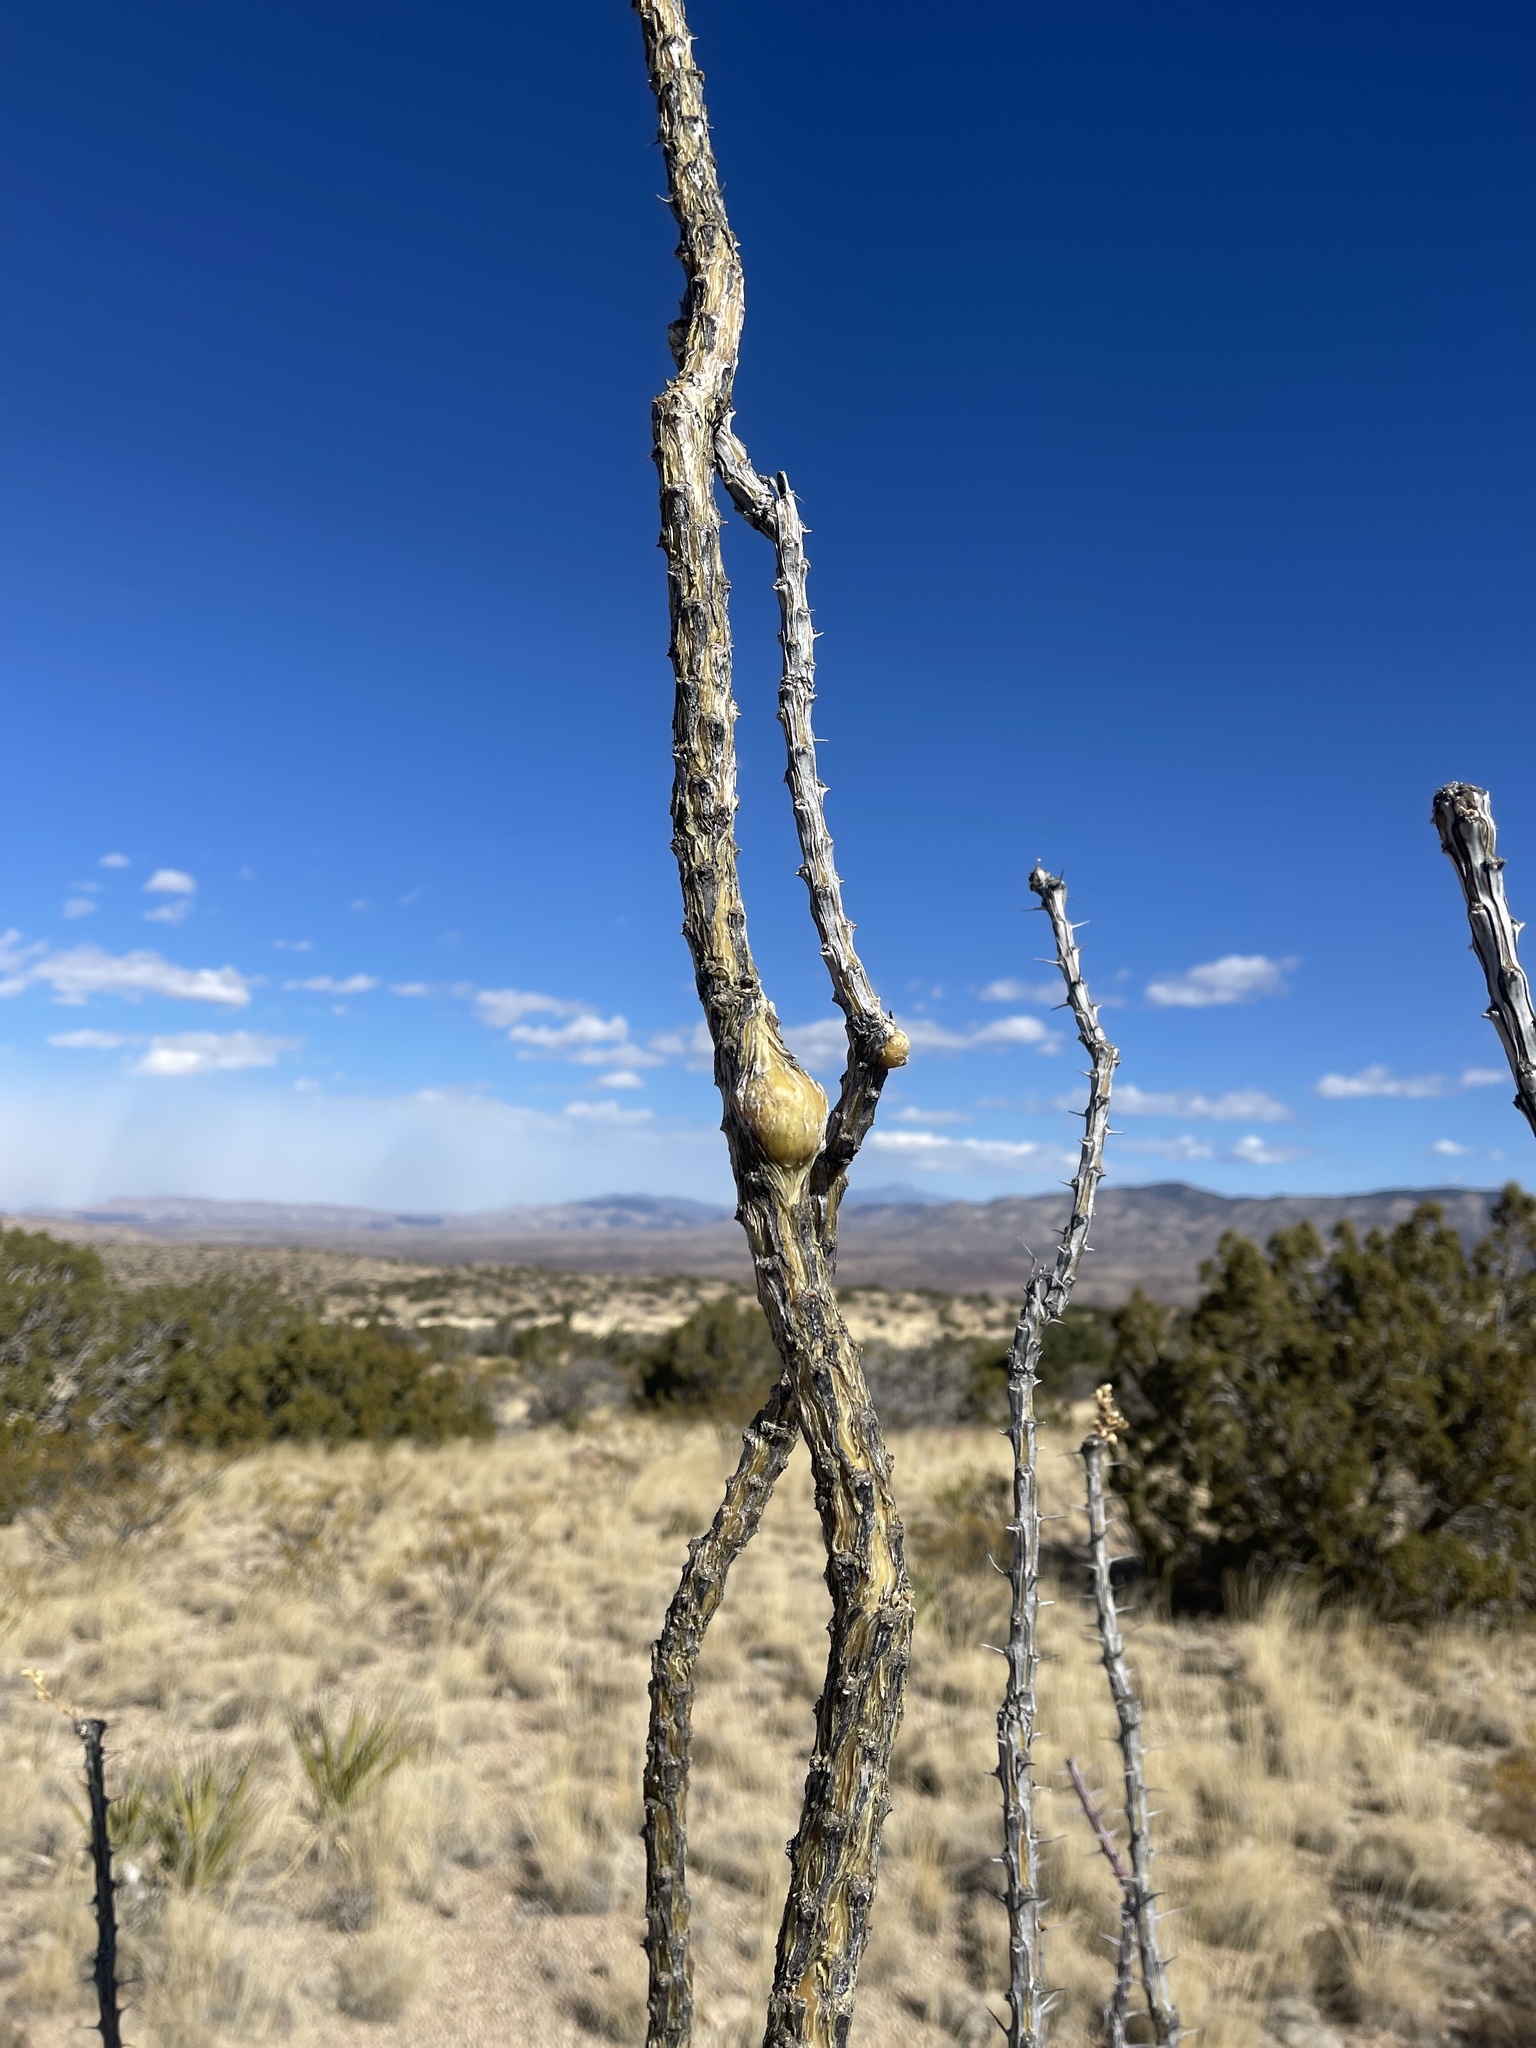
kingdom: Plantae
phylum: Tracheophyta
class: Magnoliopsida
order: Ericales
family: Fouquieriaceae
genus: Fouquieria
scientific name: Fouquieria splendens
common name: Vine-cactus
